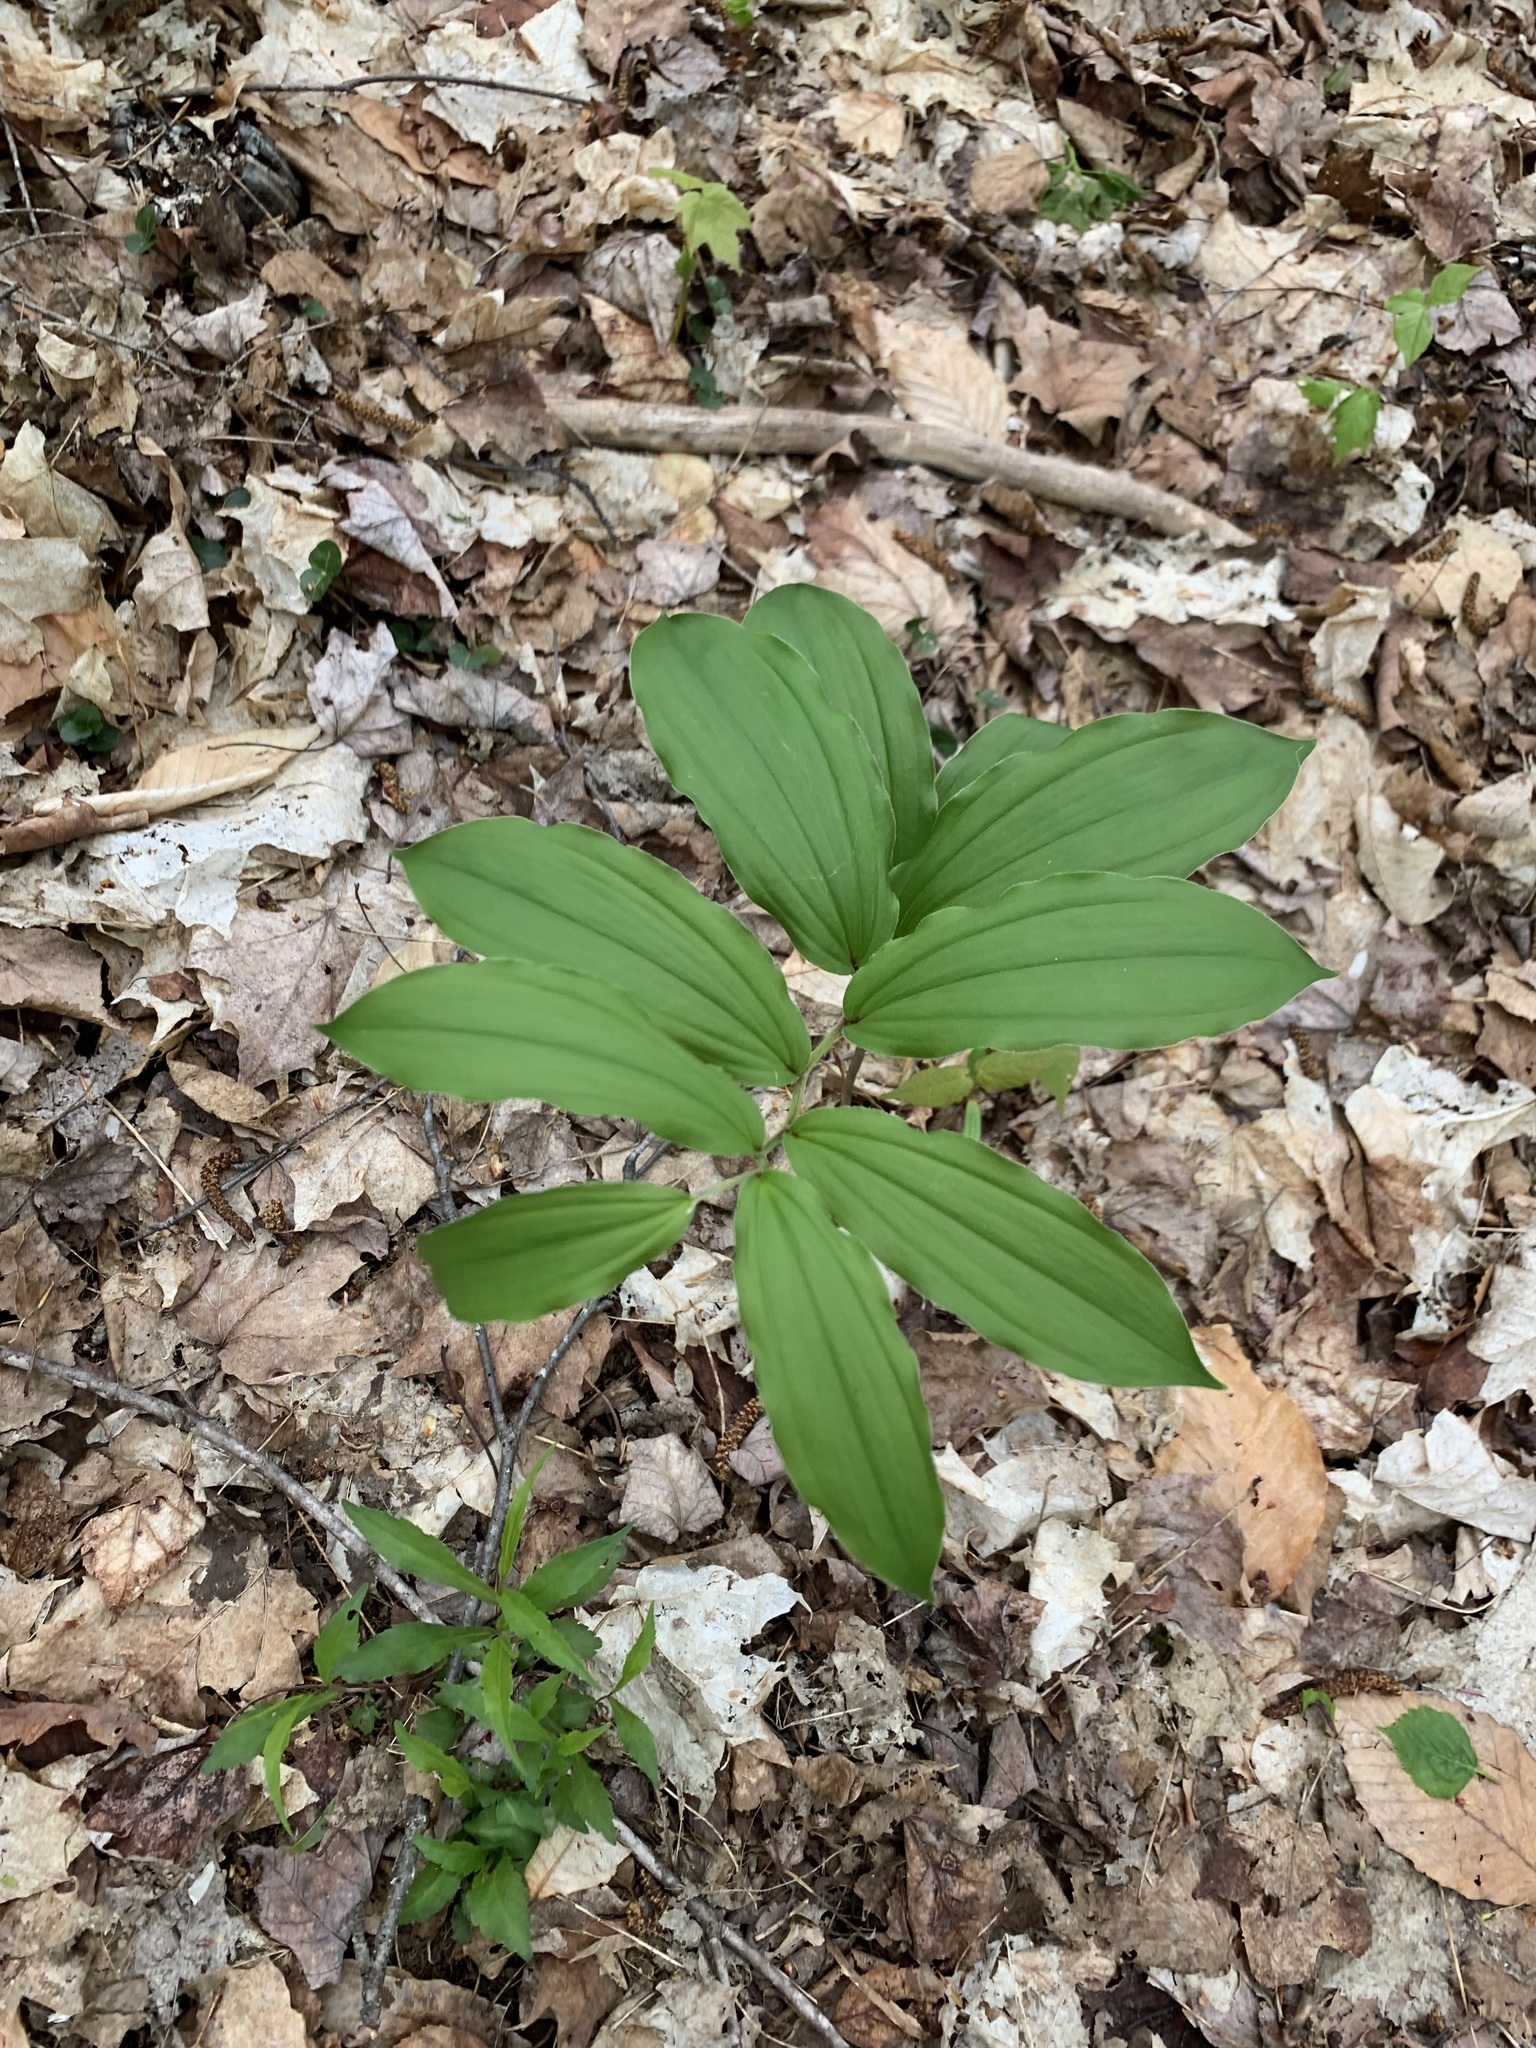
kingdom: Plantae
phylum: Tracheophyta
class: Liliopsida
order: Asparagales
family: Asparagaceae
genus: Maianthemum
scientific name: Maianthemum racemosum
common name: False spikenard
